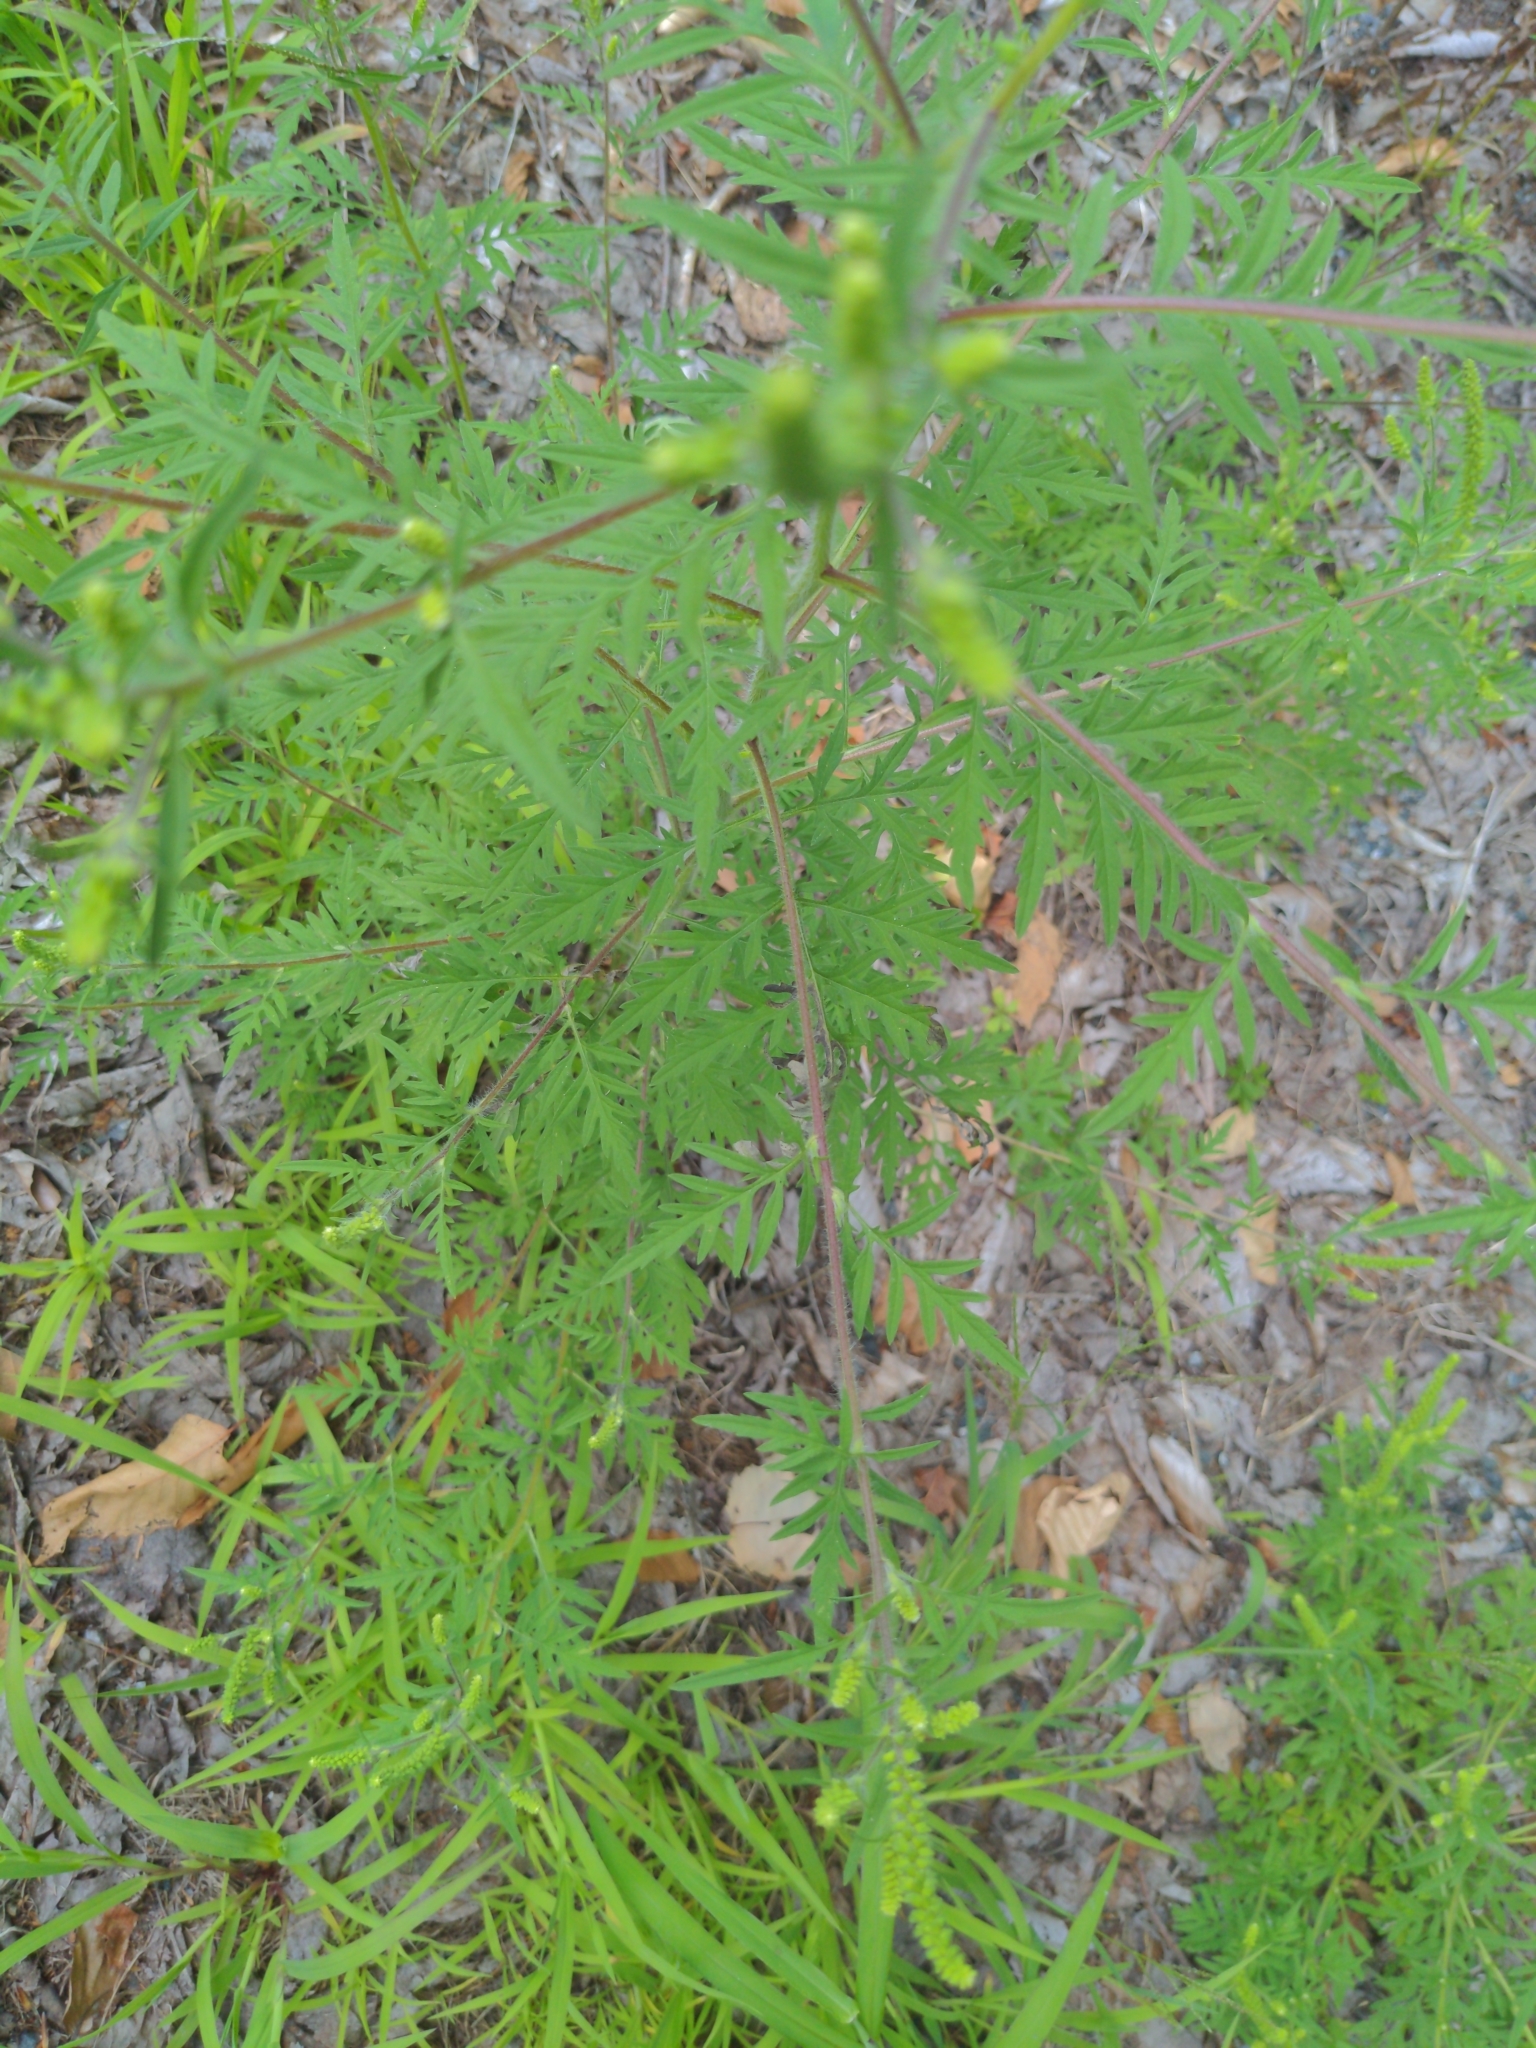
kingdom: Plantae
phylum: Tracheophyta
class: Magnoliopsida
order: Asterales
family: Asteraceae
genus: Ambrosia
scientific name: Ambrosia artemisiifolia
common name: Annual ragweed
